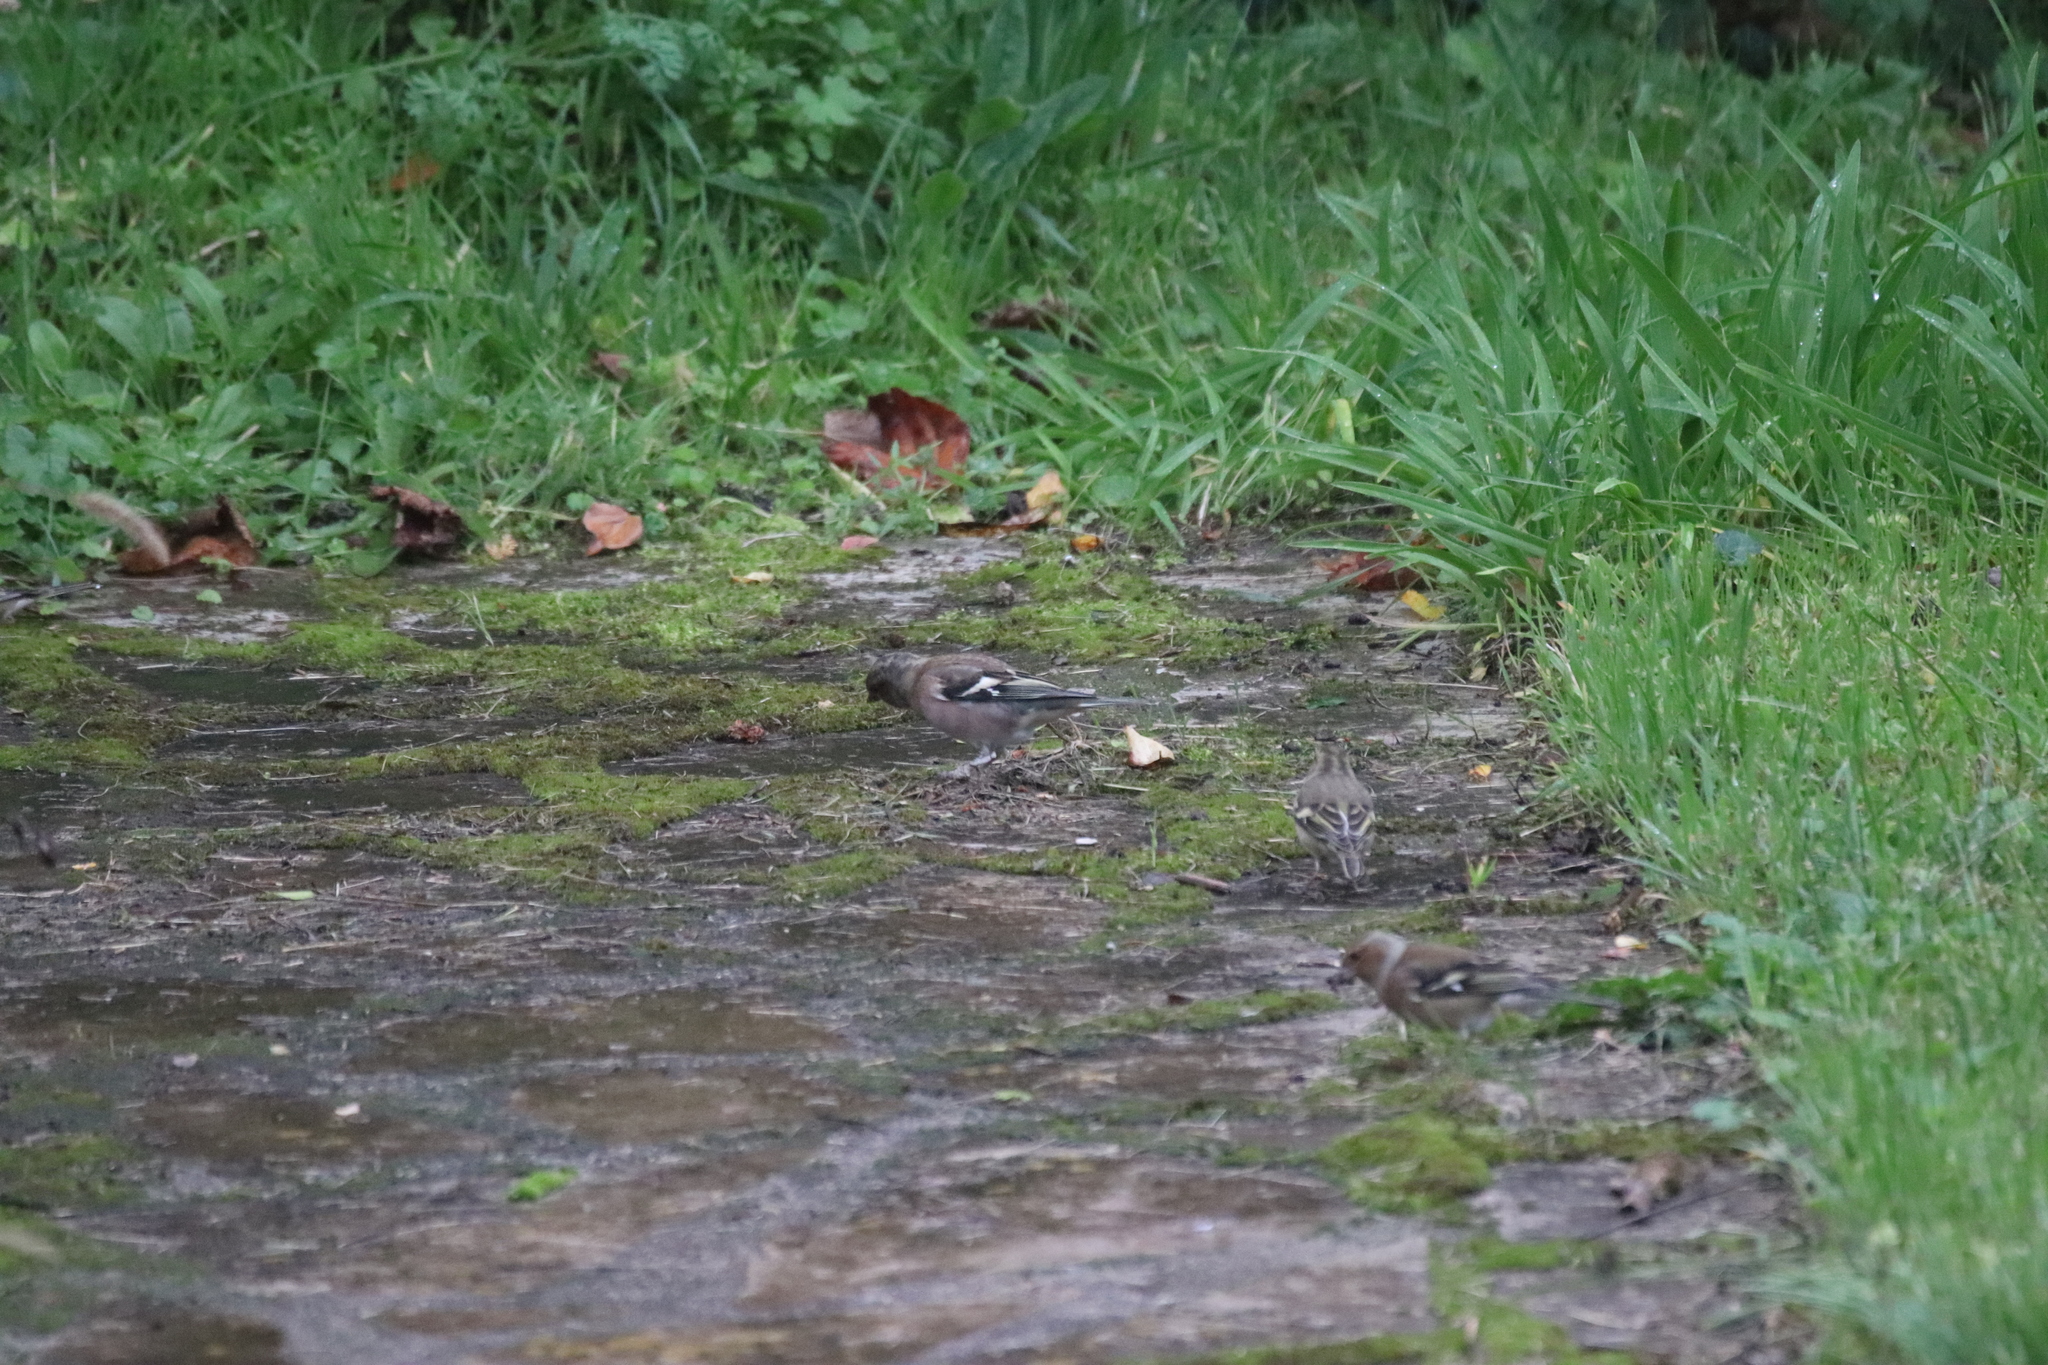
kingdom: Animalia
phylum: Chordata
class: Aves
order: Passeriformes
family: Fringillidae
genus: Fringilla
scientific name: Fringilla coelebs
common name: Common chaffinch
